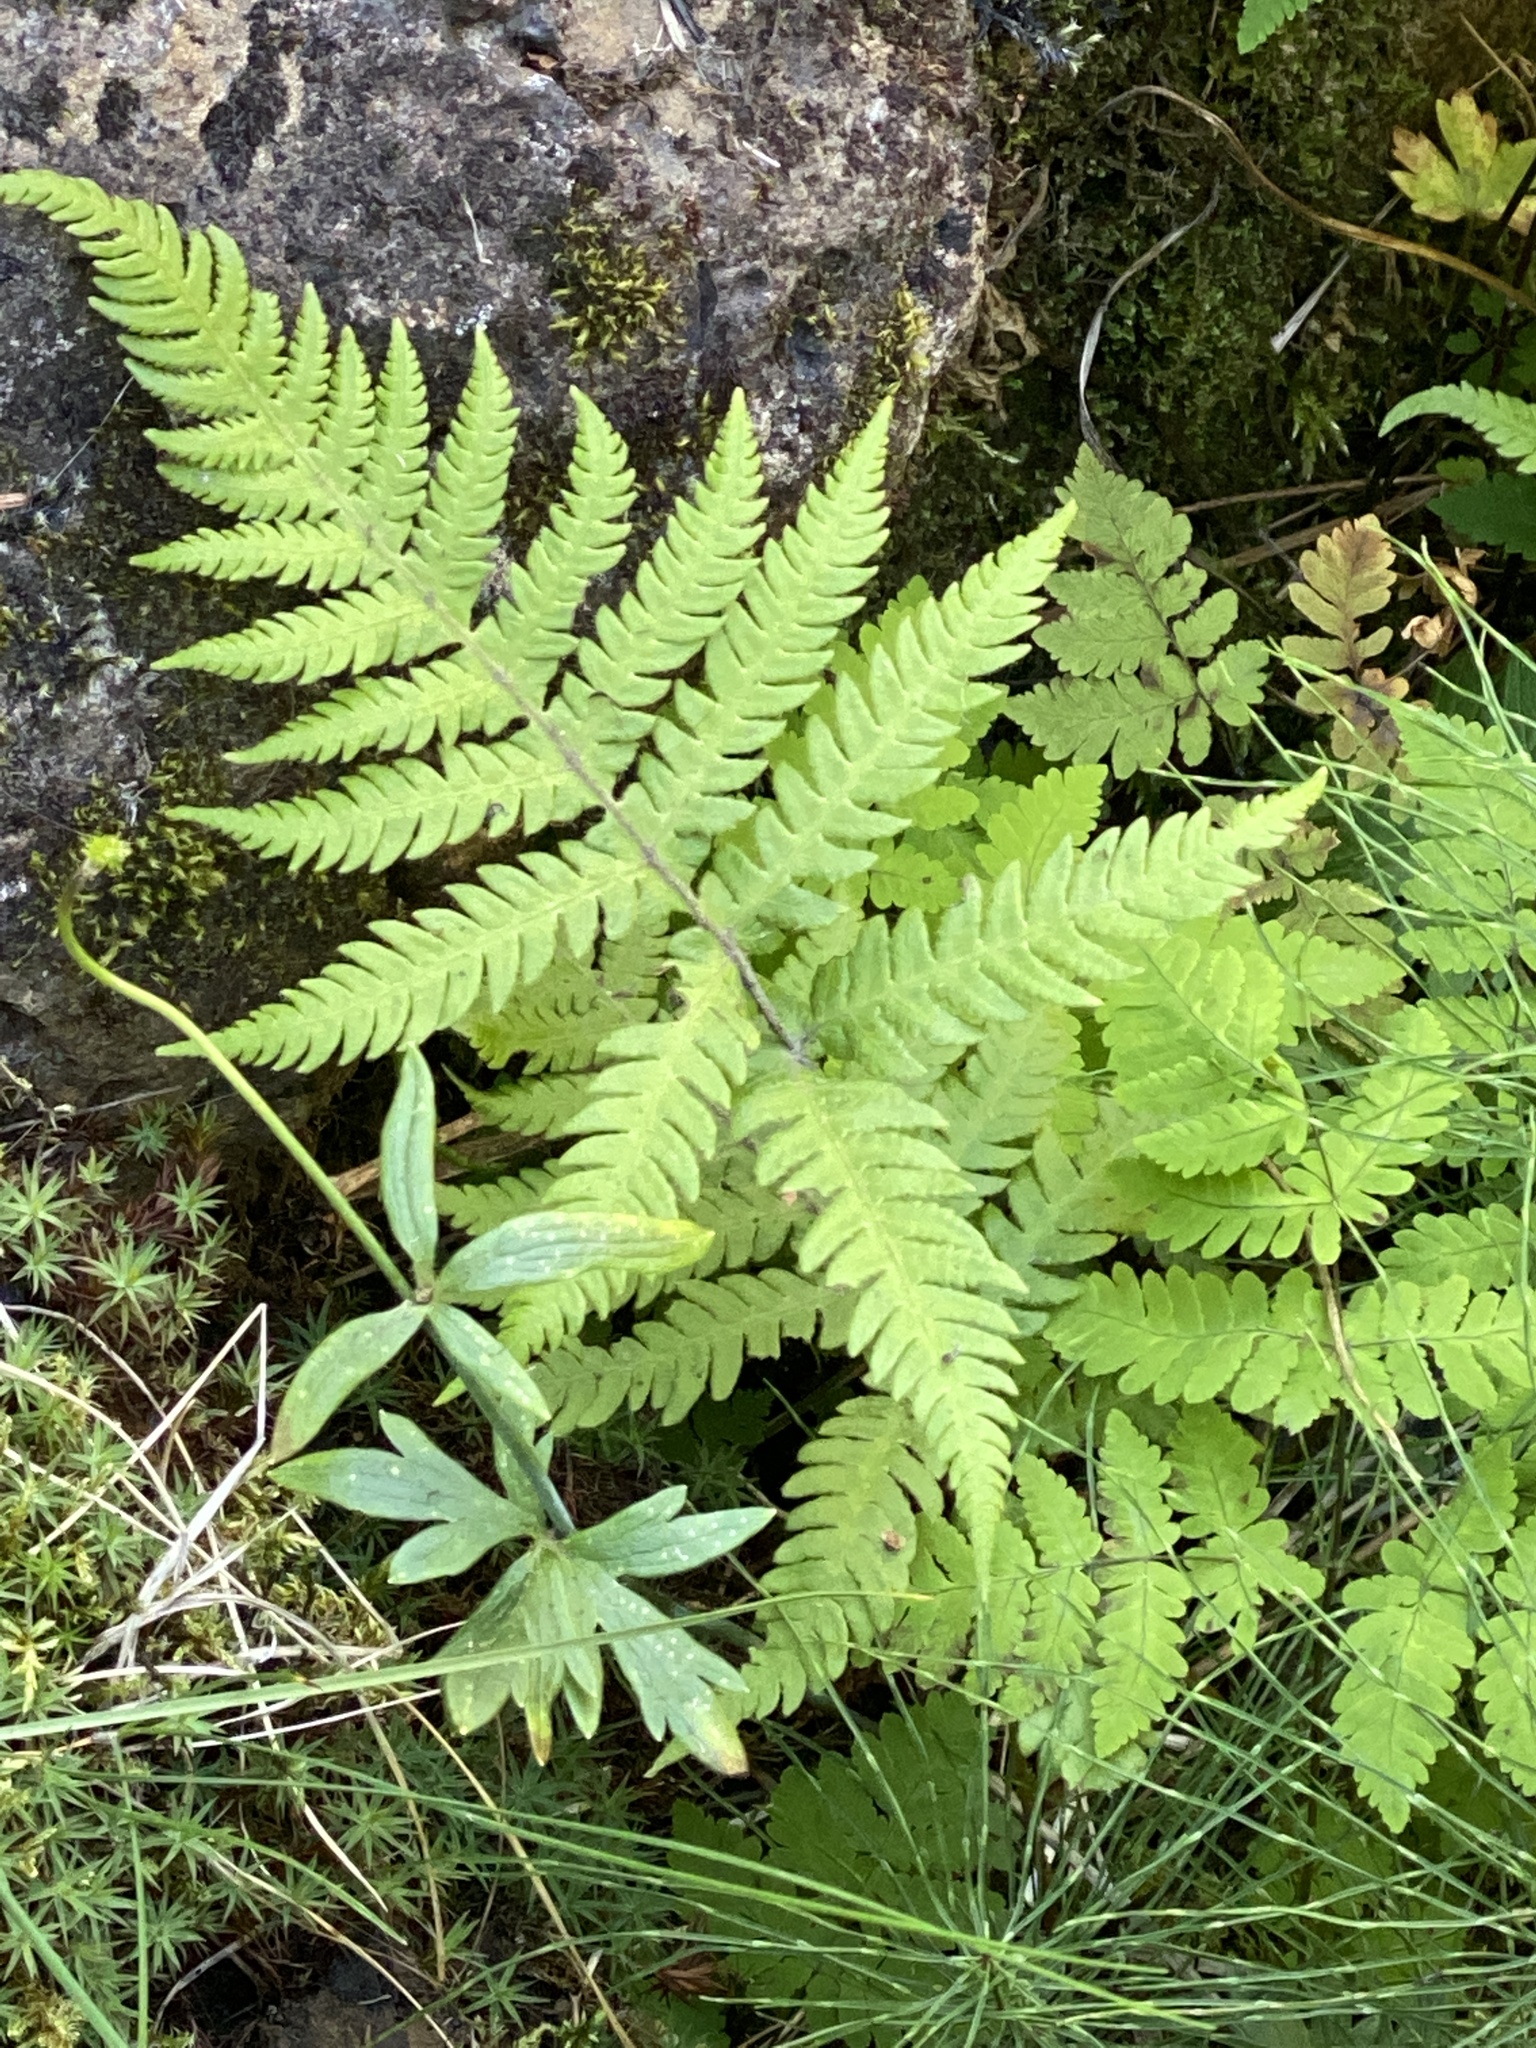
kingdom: Plantae
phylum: Tracheophyta
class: Polypodiopsida
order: Polypodiales
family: Thelypteridaceae
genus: Phegopteris
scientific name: Phegopteris connectilis
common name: Beech fern
